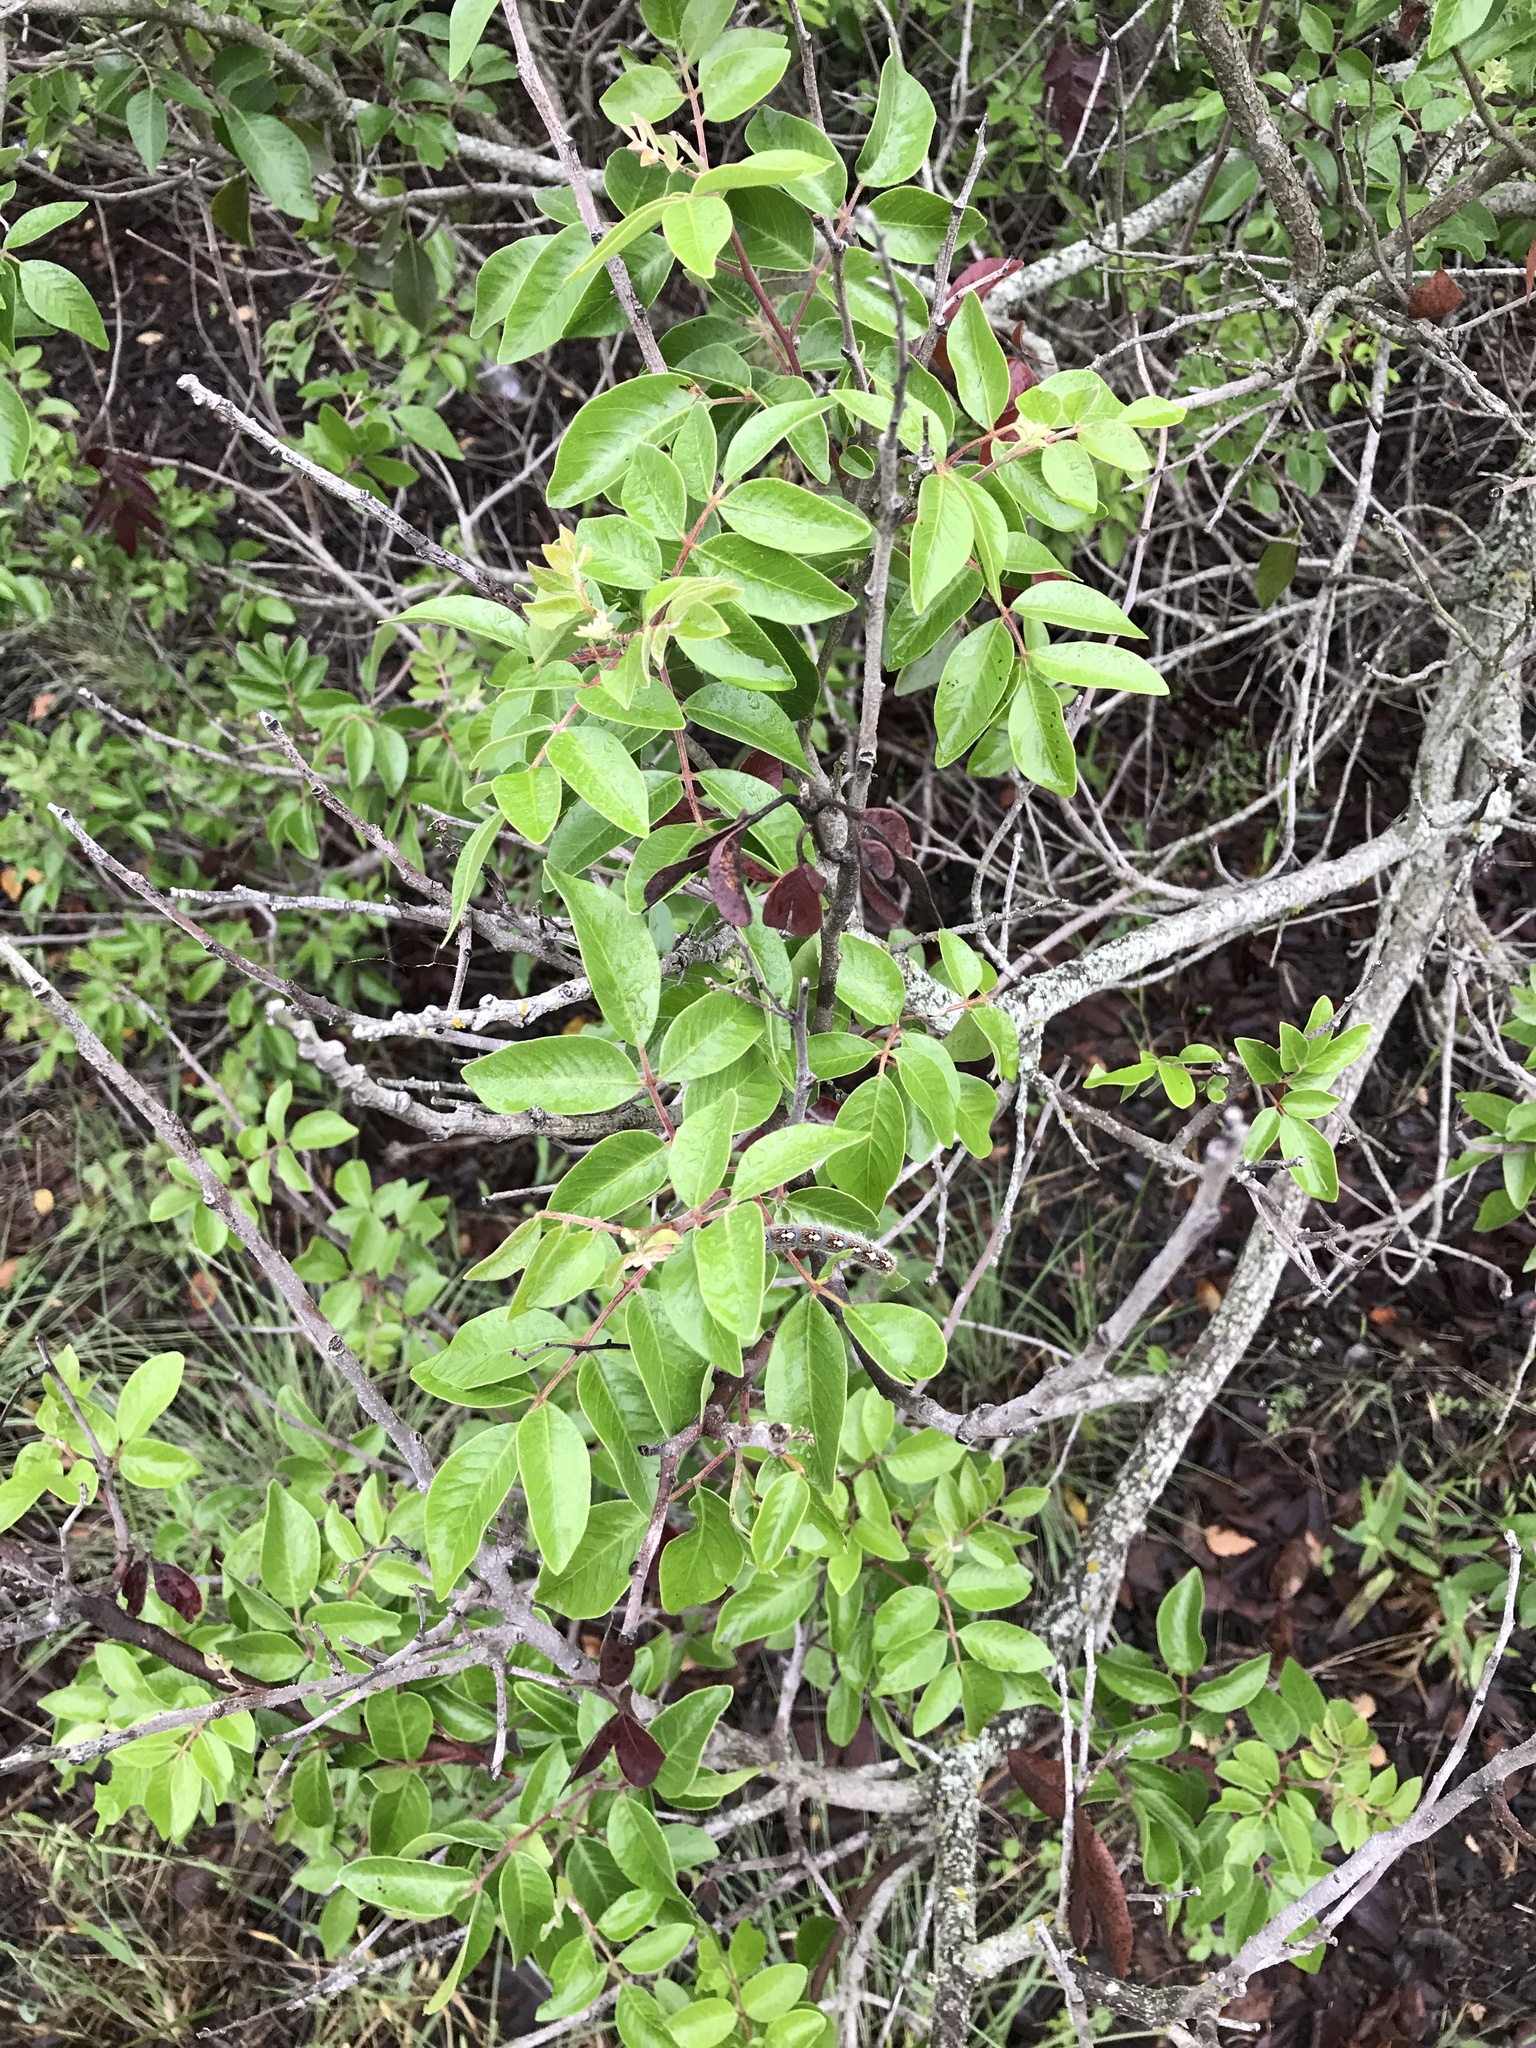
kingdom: Plantae
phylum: Tracheophyta
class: Magnoliopsida
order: Sapindales
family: Anacardiaceae
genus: Rhus
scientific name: Rhus virens
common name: Evergreen sumac
